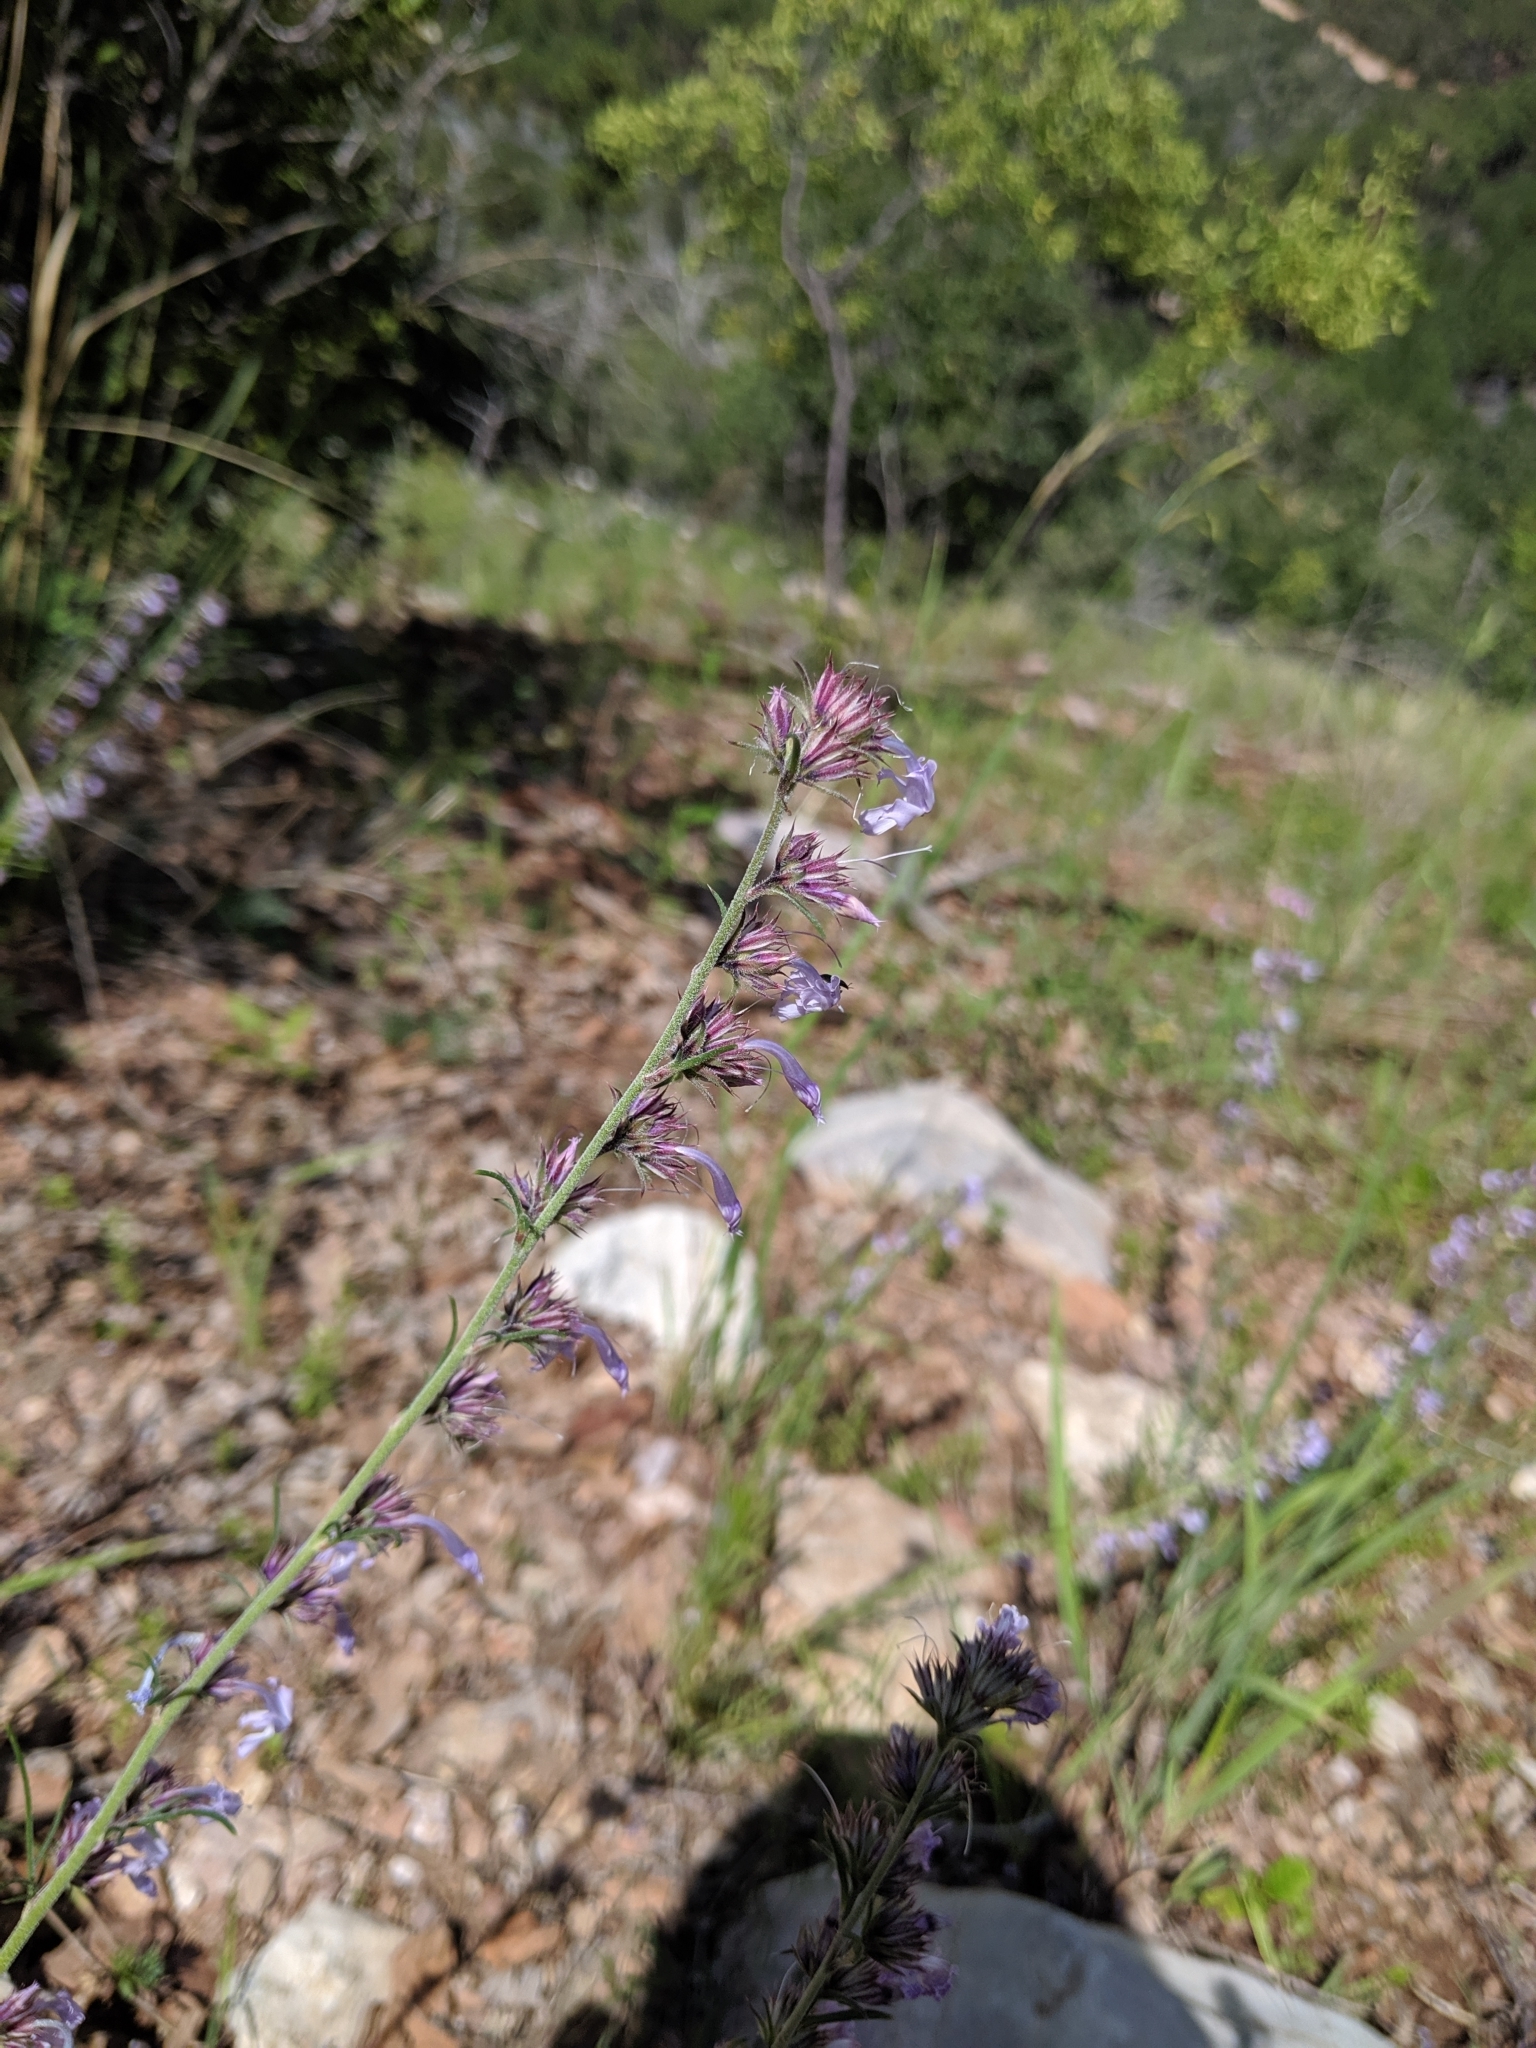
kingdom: Plantae
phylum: Tracheophyta
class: Magnoliopsida
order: Lamiales
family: Lamiaceae
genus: Hedeoma
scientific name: Hedeoma hyssopifolia
